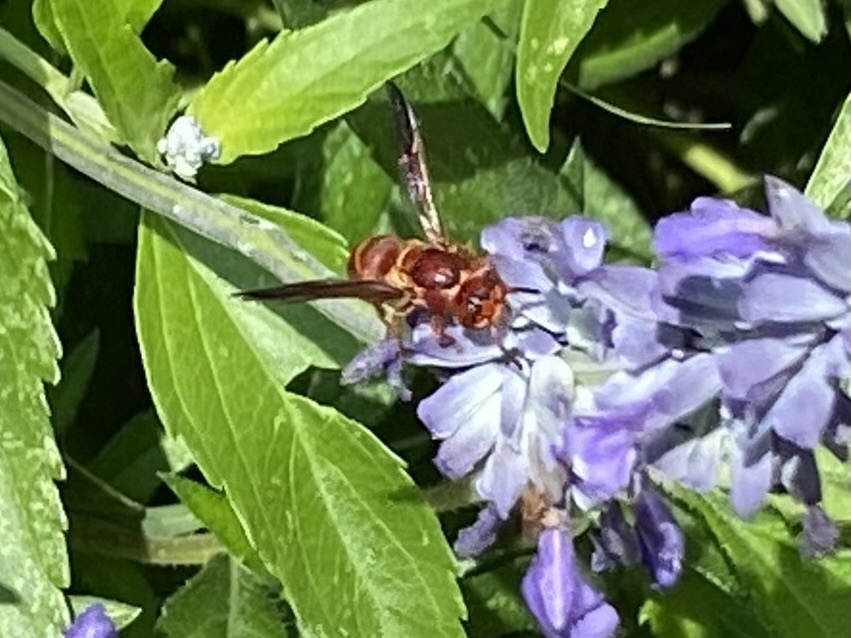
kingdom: Animalia
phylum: Arthropoda
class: Insecta
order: Hymenoptera
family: Eumenidae
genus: Euodynerus
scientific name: Euodynerus pratensis
